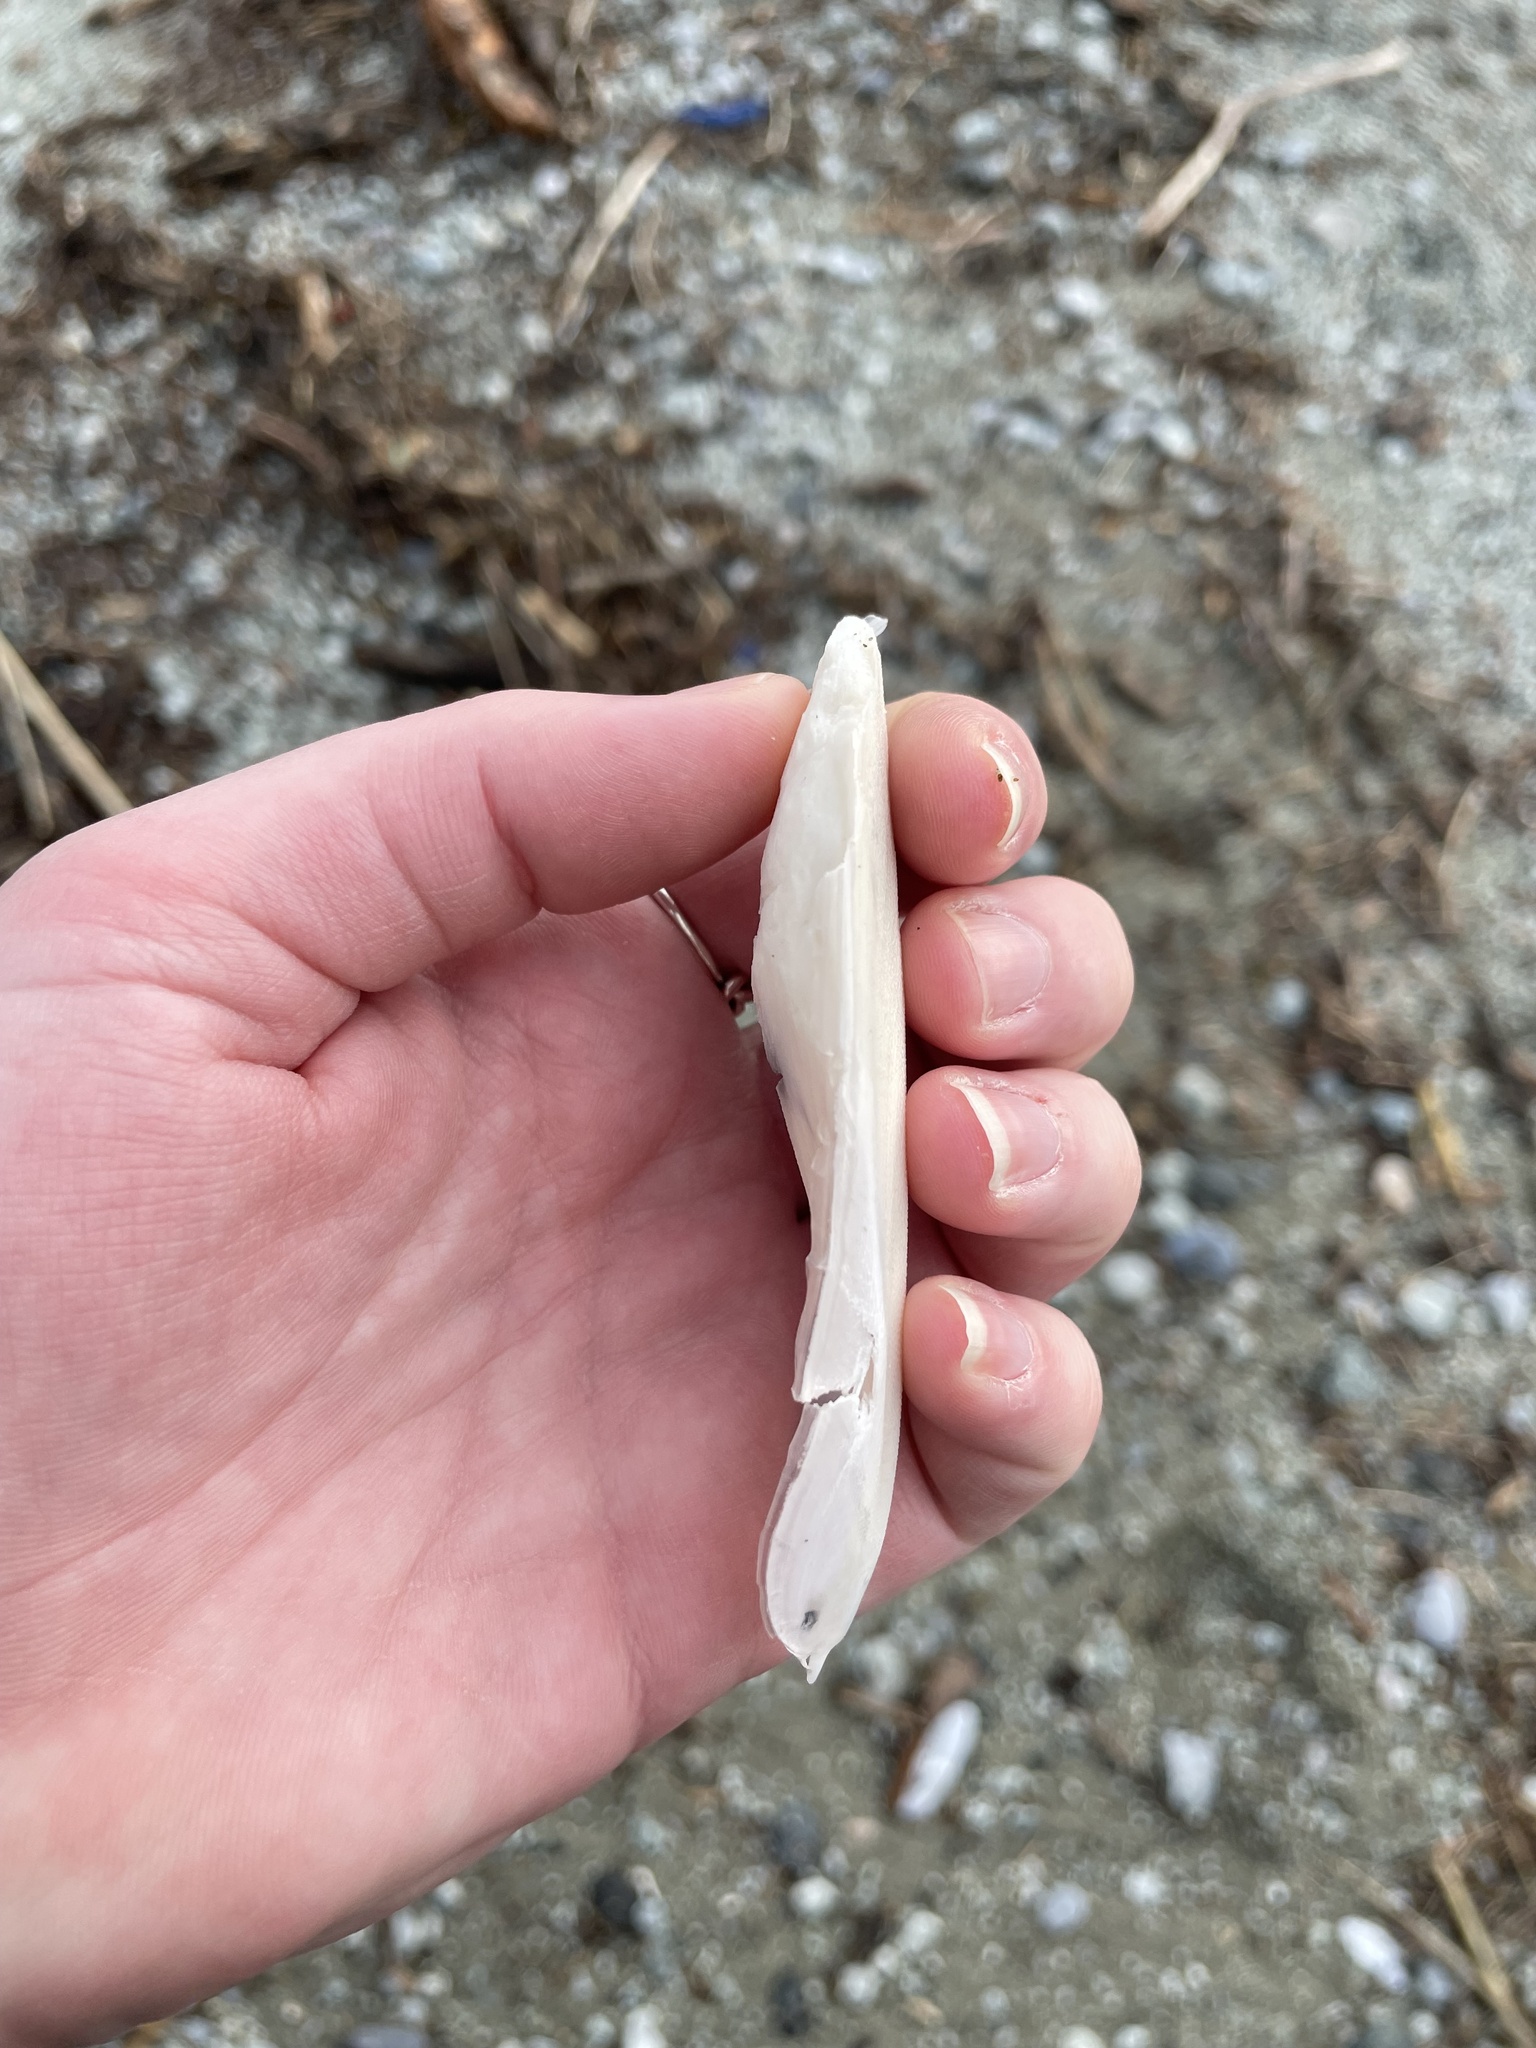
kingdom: Animalia
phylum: Mollusca
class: Cephalopoda
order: Sepiida
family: Sepiidae
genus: Sepia
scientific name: Sepia officinalis
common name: Common cuttlefish
